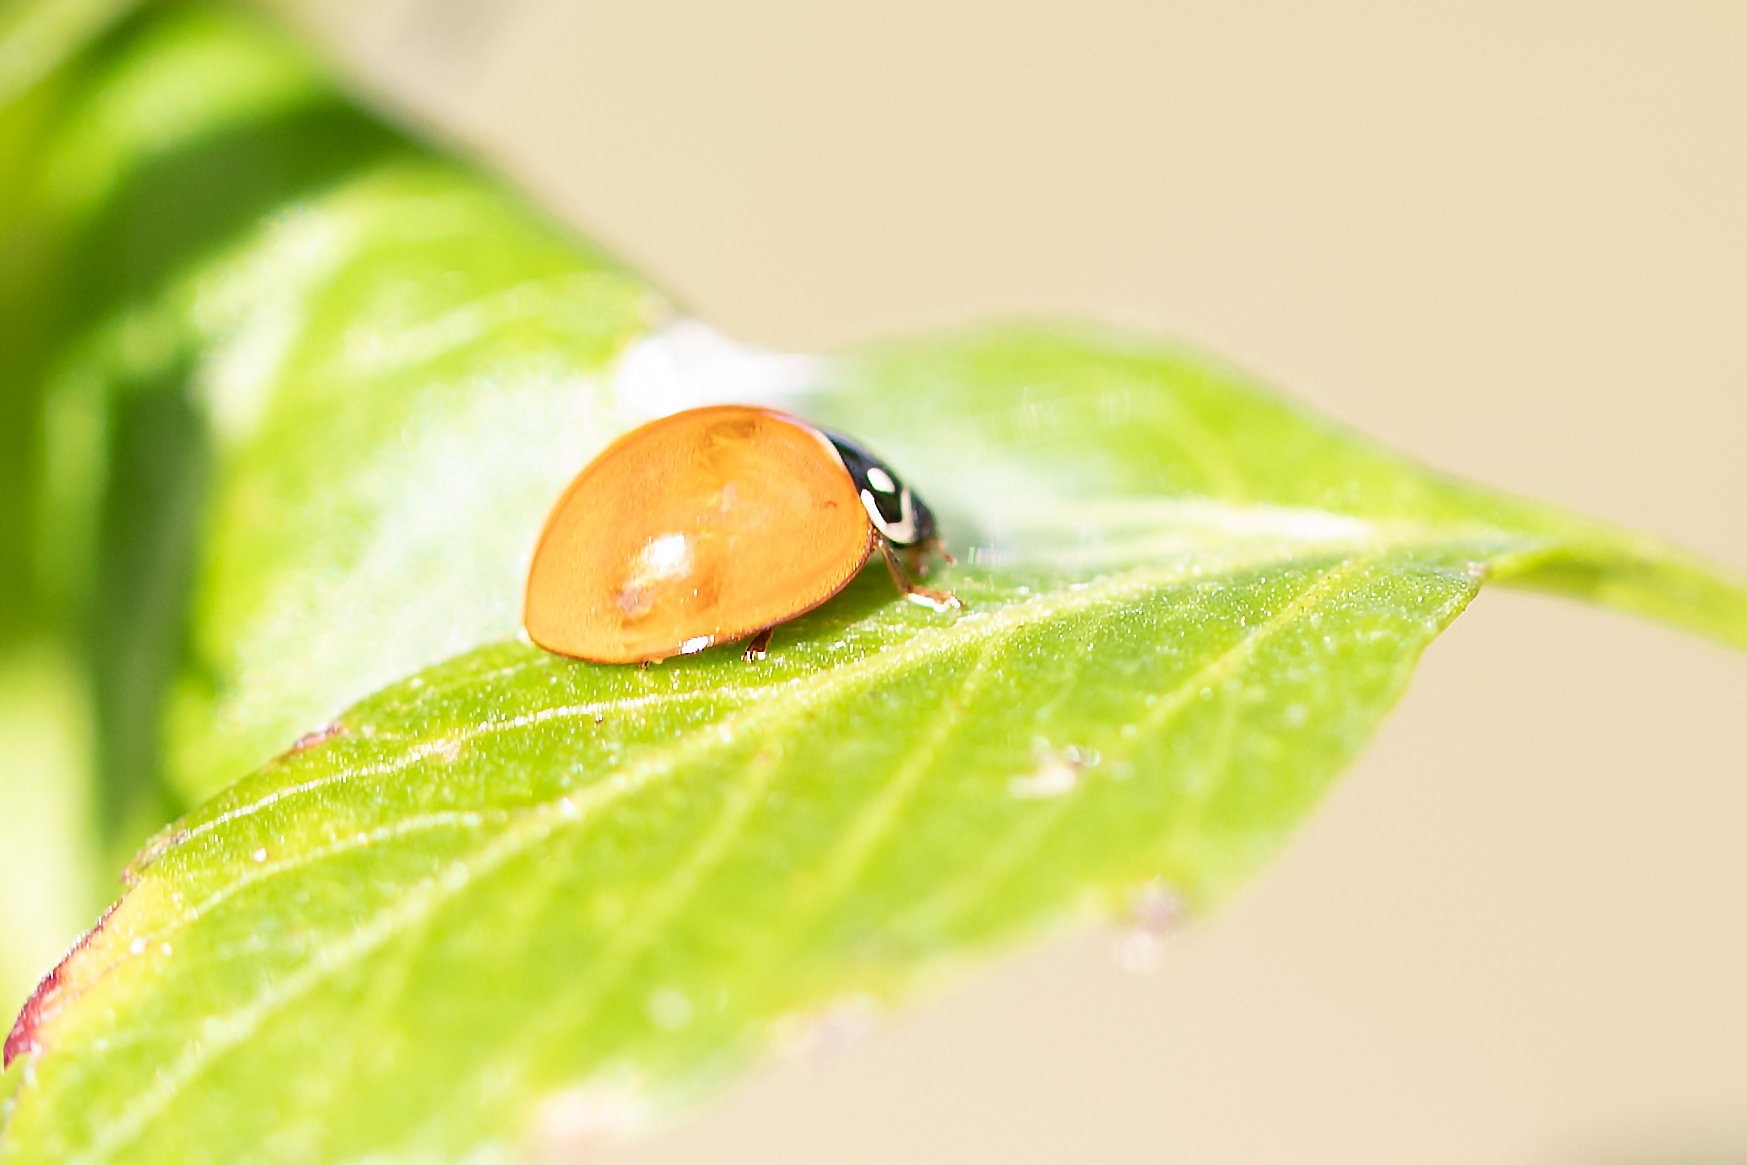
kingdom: Animalia
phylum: Arthropoda
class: Insecta
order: Coleoptera
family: Coccinellidae
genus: Cycloneda
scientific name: Cycloneda sanguinea
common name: Ladybird beetle
